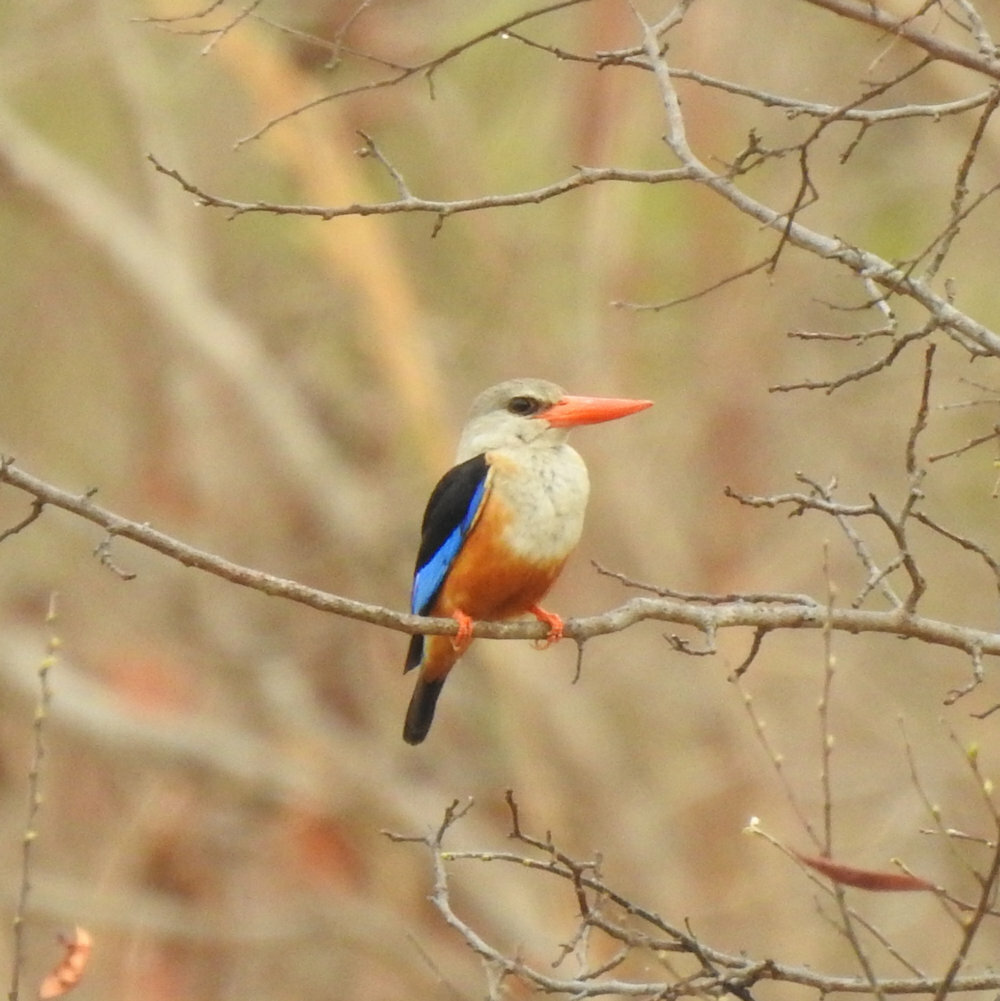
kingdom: Animalia
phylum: Chordata
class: Aves
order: Coraciiformes
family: Alcedinidae
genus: Halcyon
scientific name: Halcyon leucocephala
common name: Grey-headed kingfisher
